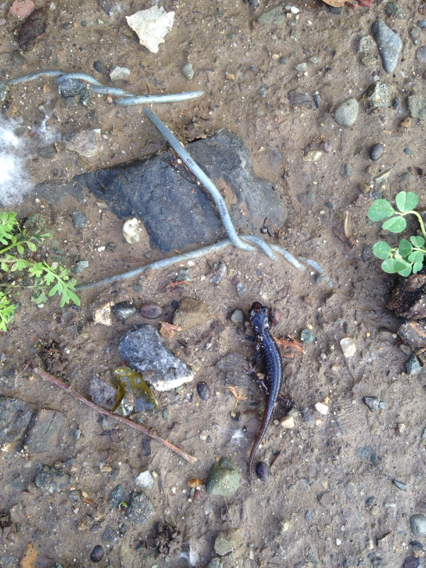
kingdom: Animalia
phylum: Chordata
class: Amphibia
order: Caudata
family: Plethodontidae
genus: Aneides
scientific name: Aneides lugubris
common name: Arboreal salamander
